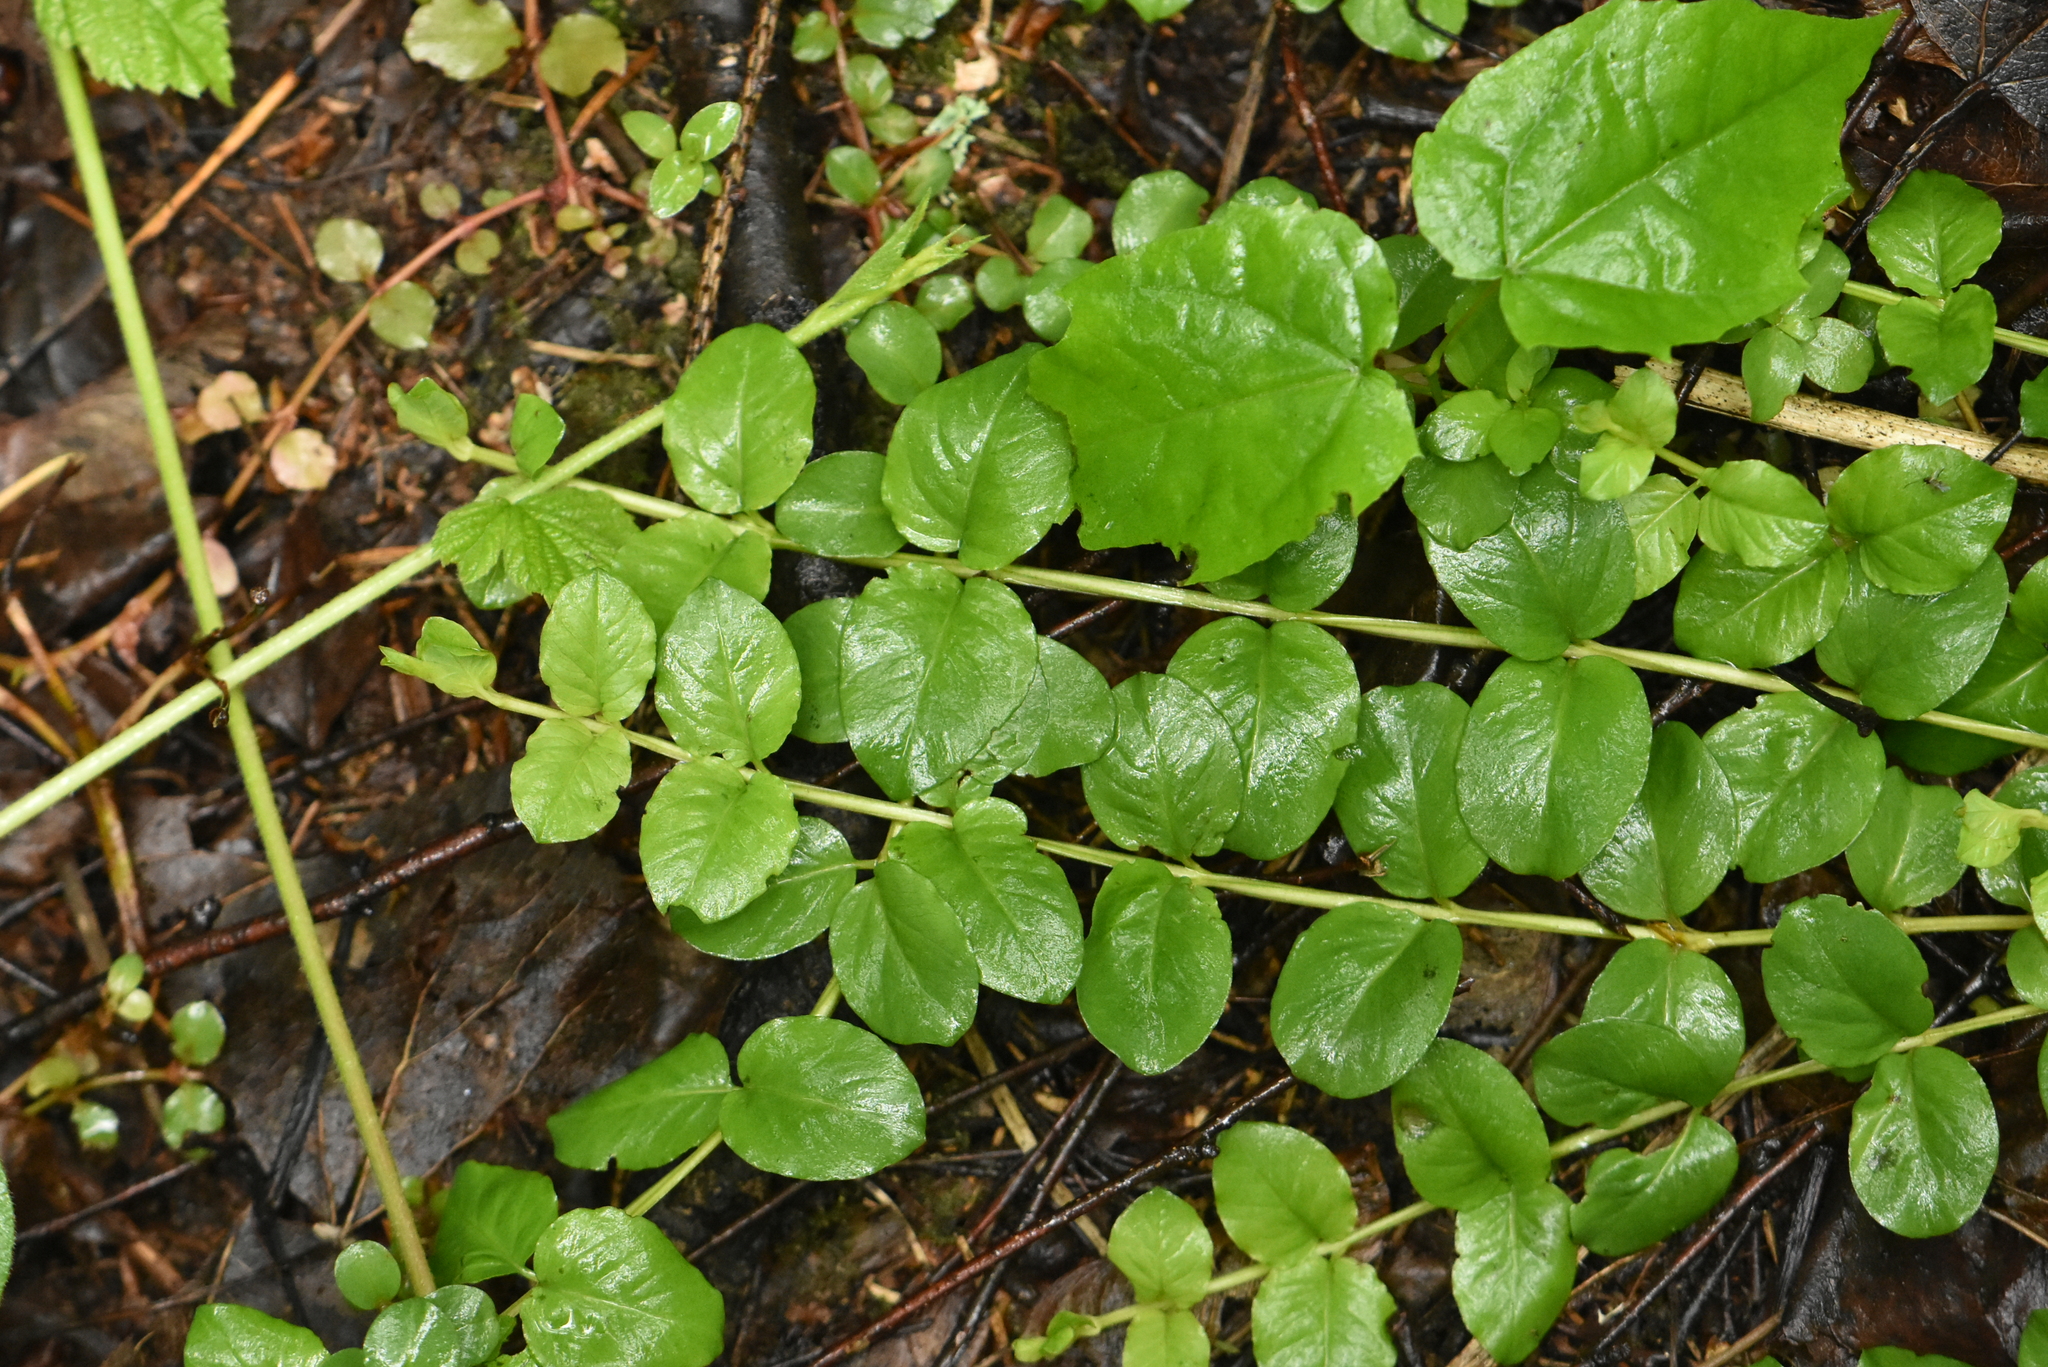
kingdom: Plantae
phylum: Tracheophyta
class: Magnoliopsida
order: Ericales
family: Primulaceae
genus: Lysimachia
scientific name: Lysimachia nummularia
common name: Moneywort
